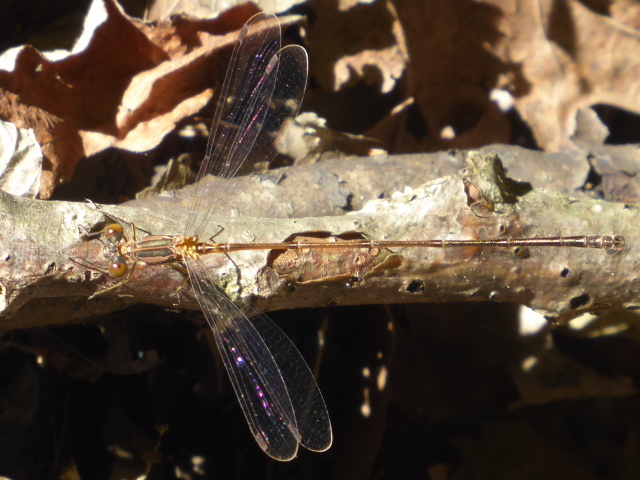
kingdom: Animalia
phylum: Arthropoda
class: Insecta
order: Odonata
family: Lestidae
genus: Lestes
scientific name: Lestes rectangularis
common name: Slender spreadwing
